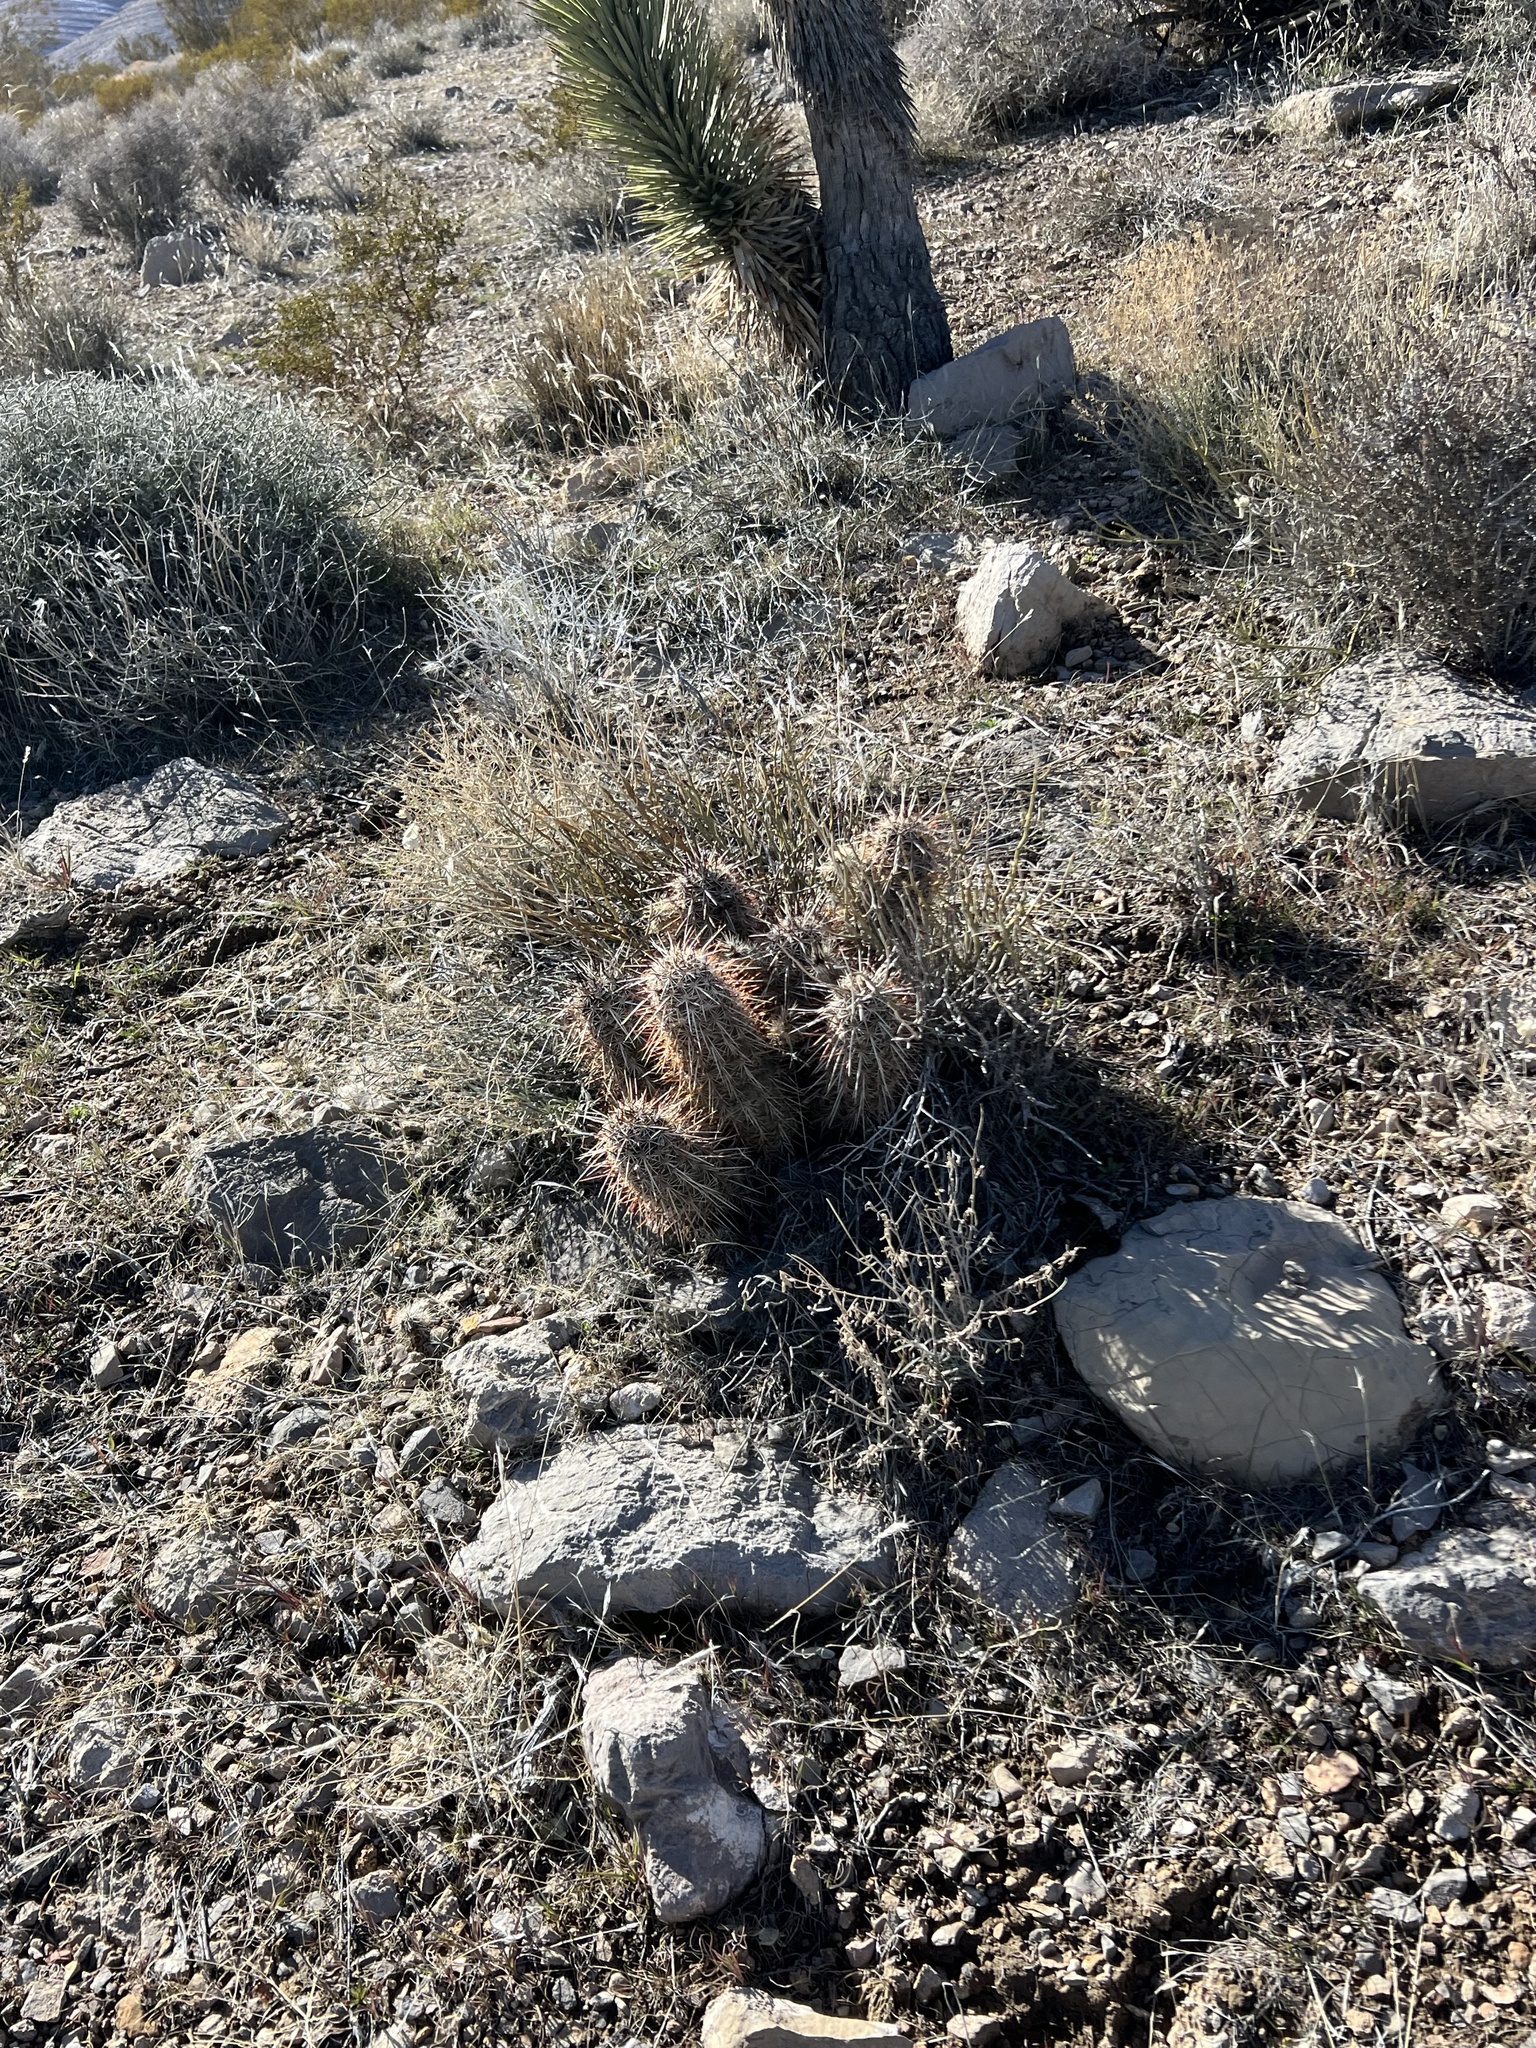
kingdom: Plantae
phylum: Tracheophyta
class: Magnoliopsida
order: Caryophyllales
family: Cactaceae
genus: Echinocereus
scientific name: Echinocereus engelmannii
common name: Engelmann's hedgehog cactus
